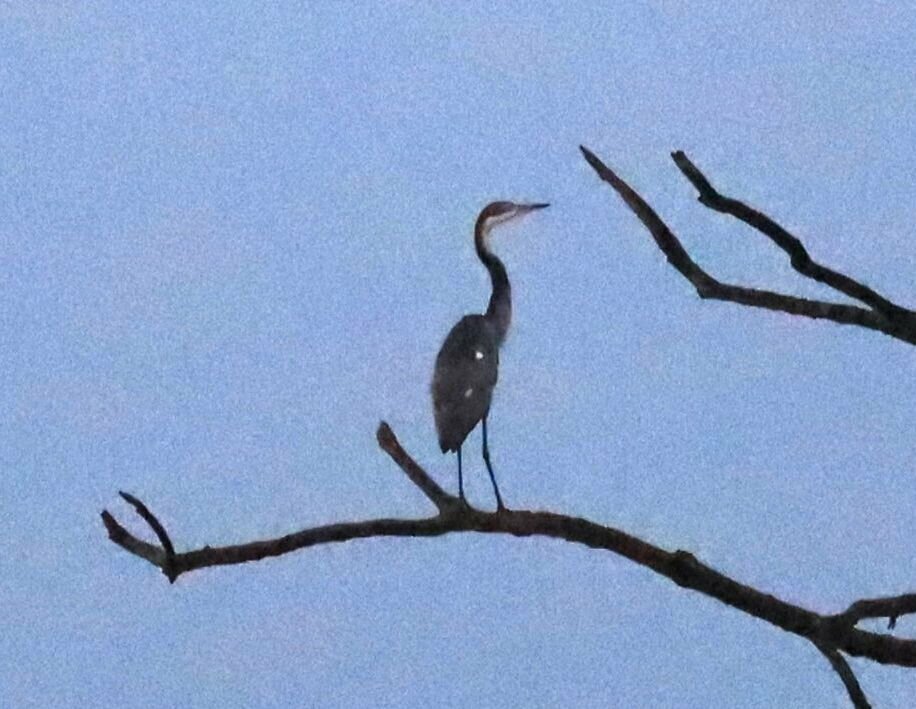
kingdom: Animalia
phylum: Chordata
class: Aves
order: Pelecaniformes
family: Ardeidae
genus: Ardea
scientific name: Ardea melanocephala
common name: Black-headed heron
